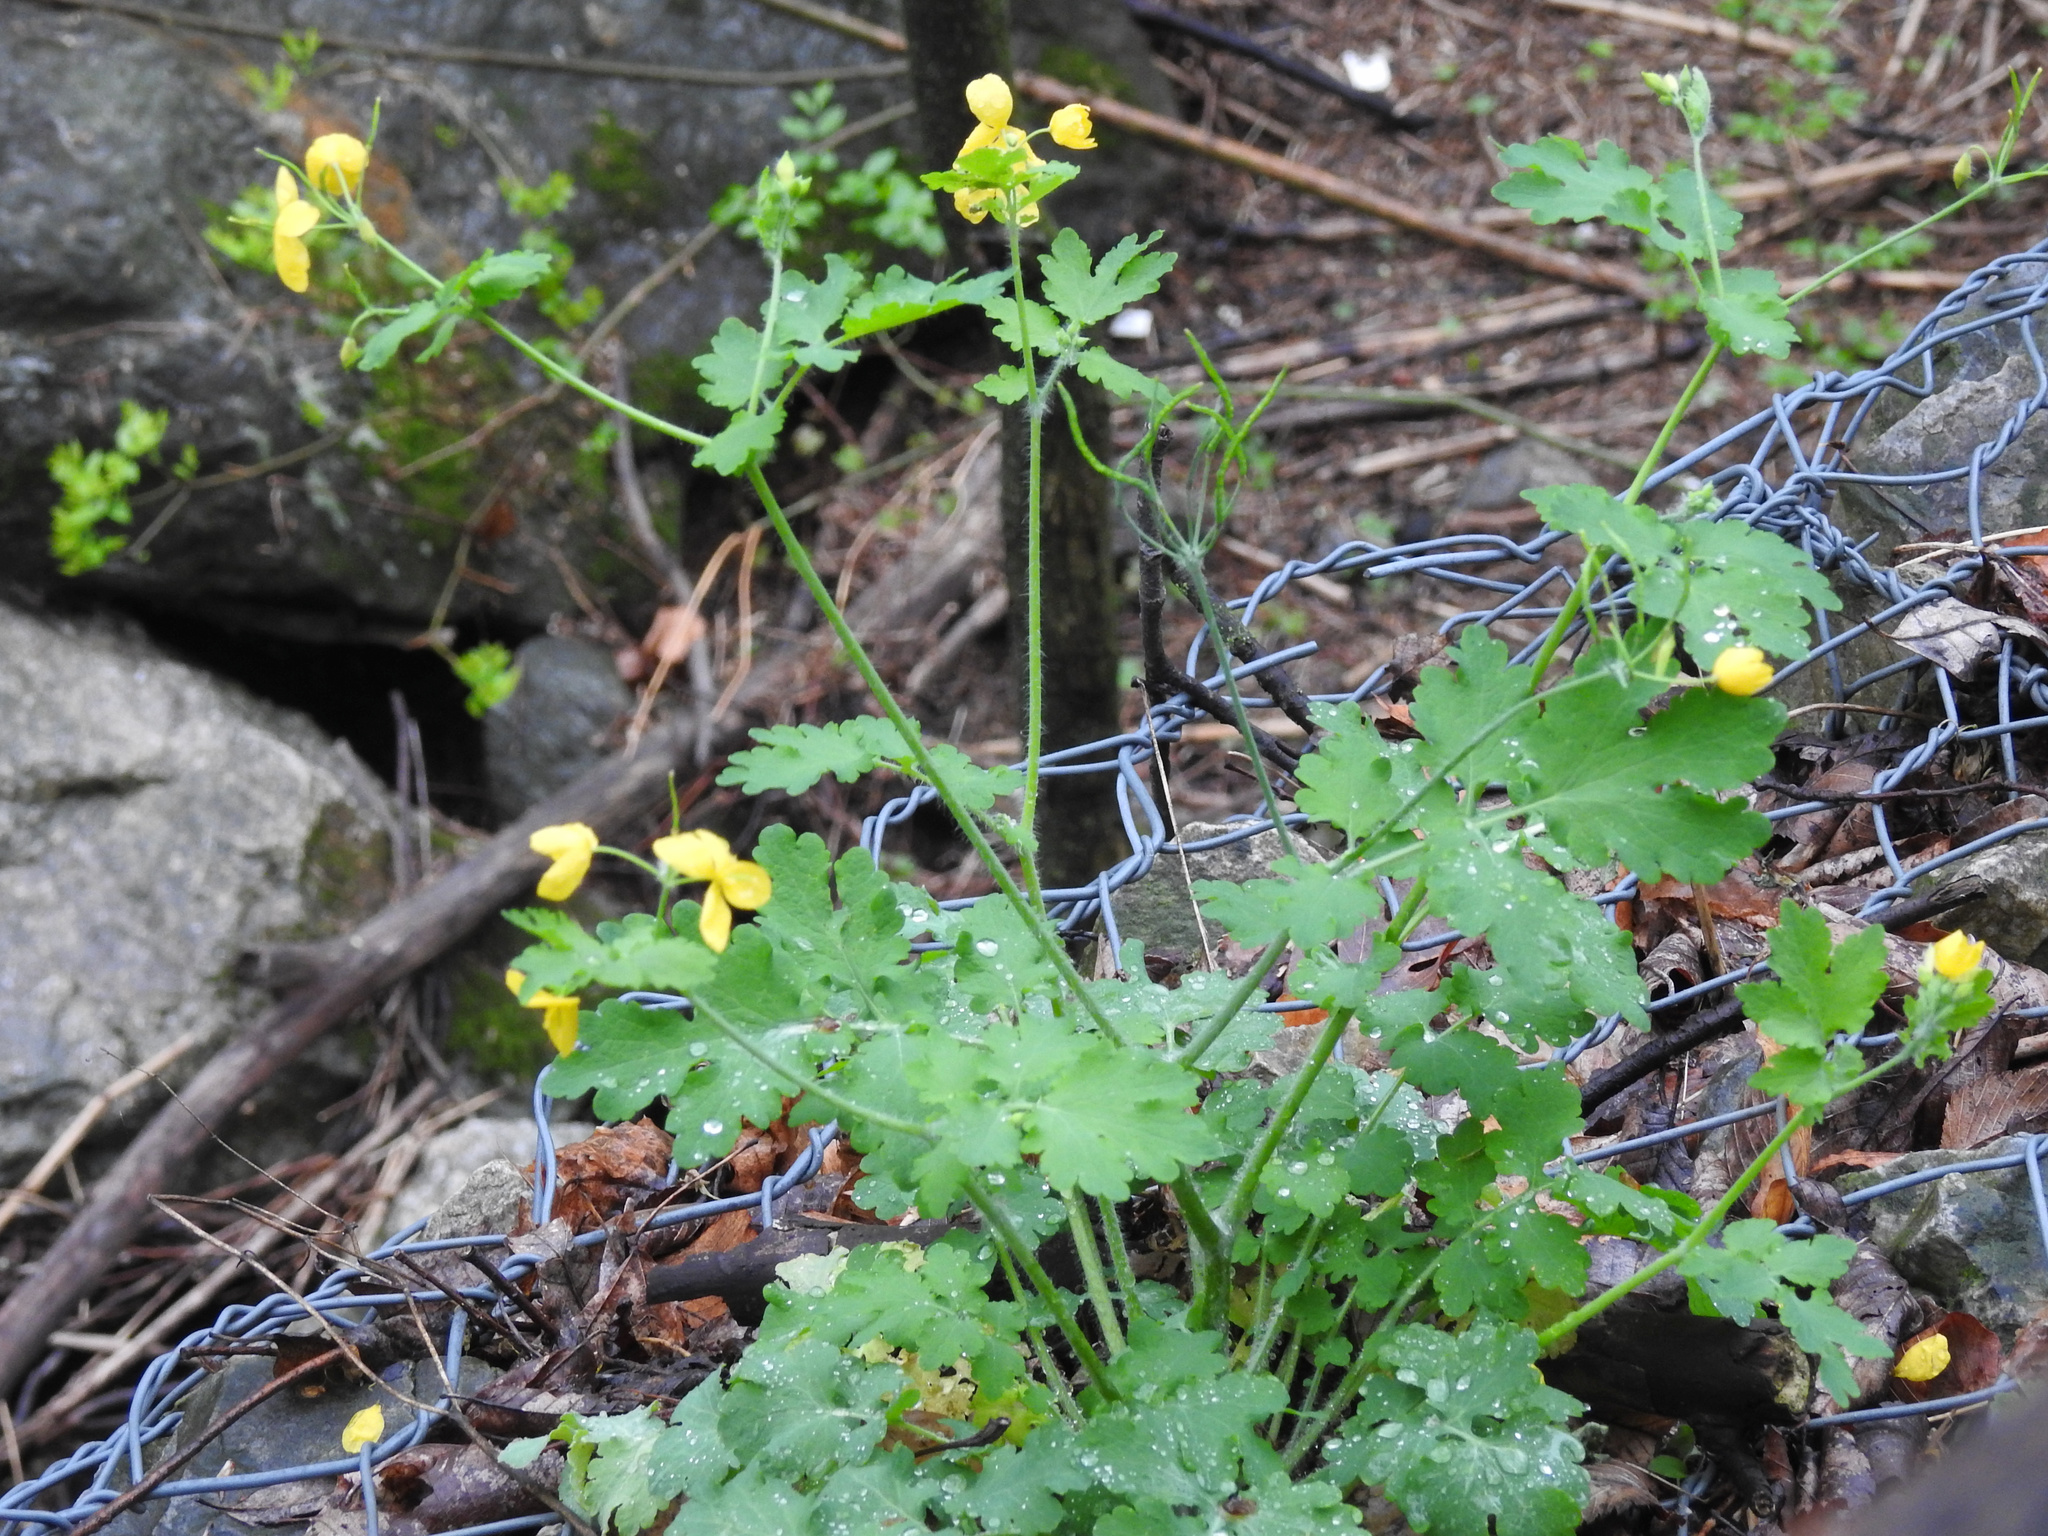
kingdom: Plantae
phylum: Tracheophyta
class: Magnoliopsida
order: Ranunculales
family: Papaveraceae
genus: Chelidonium
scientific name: Chelidonium majus
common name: Greater celandine
